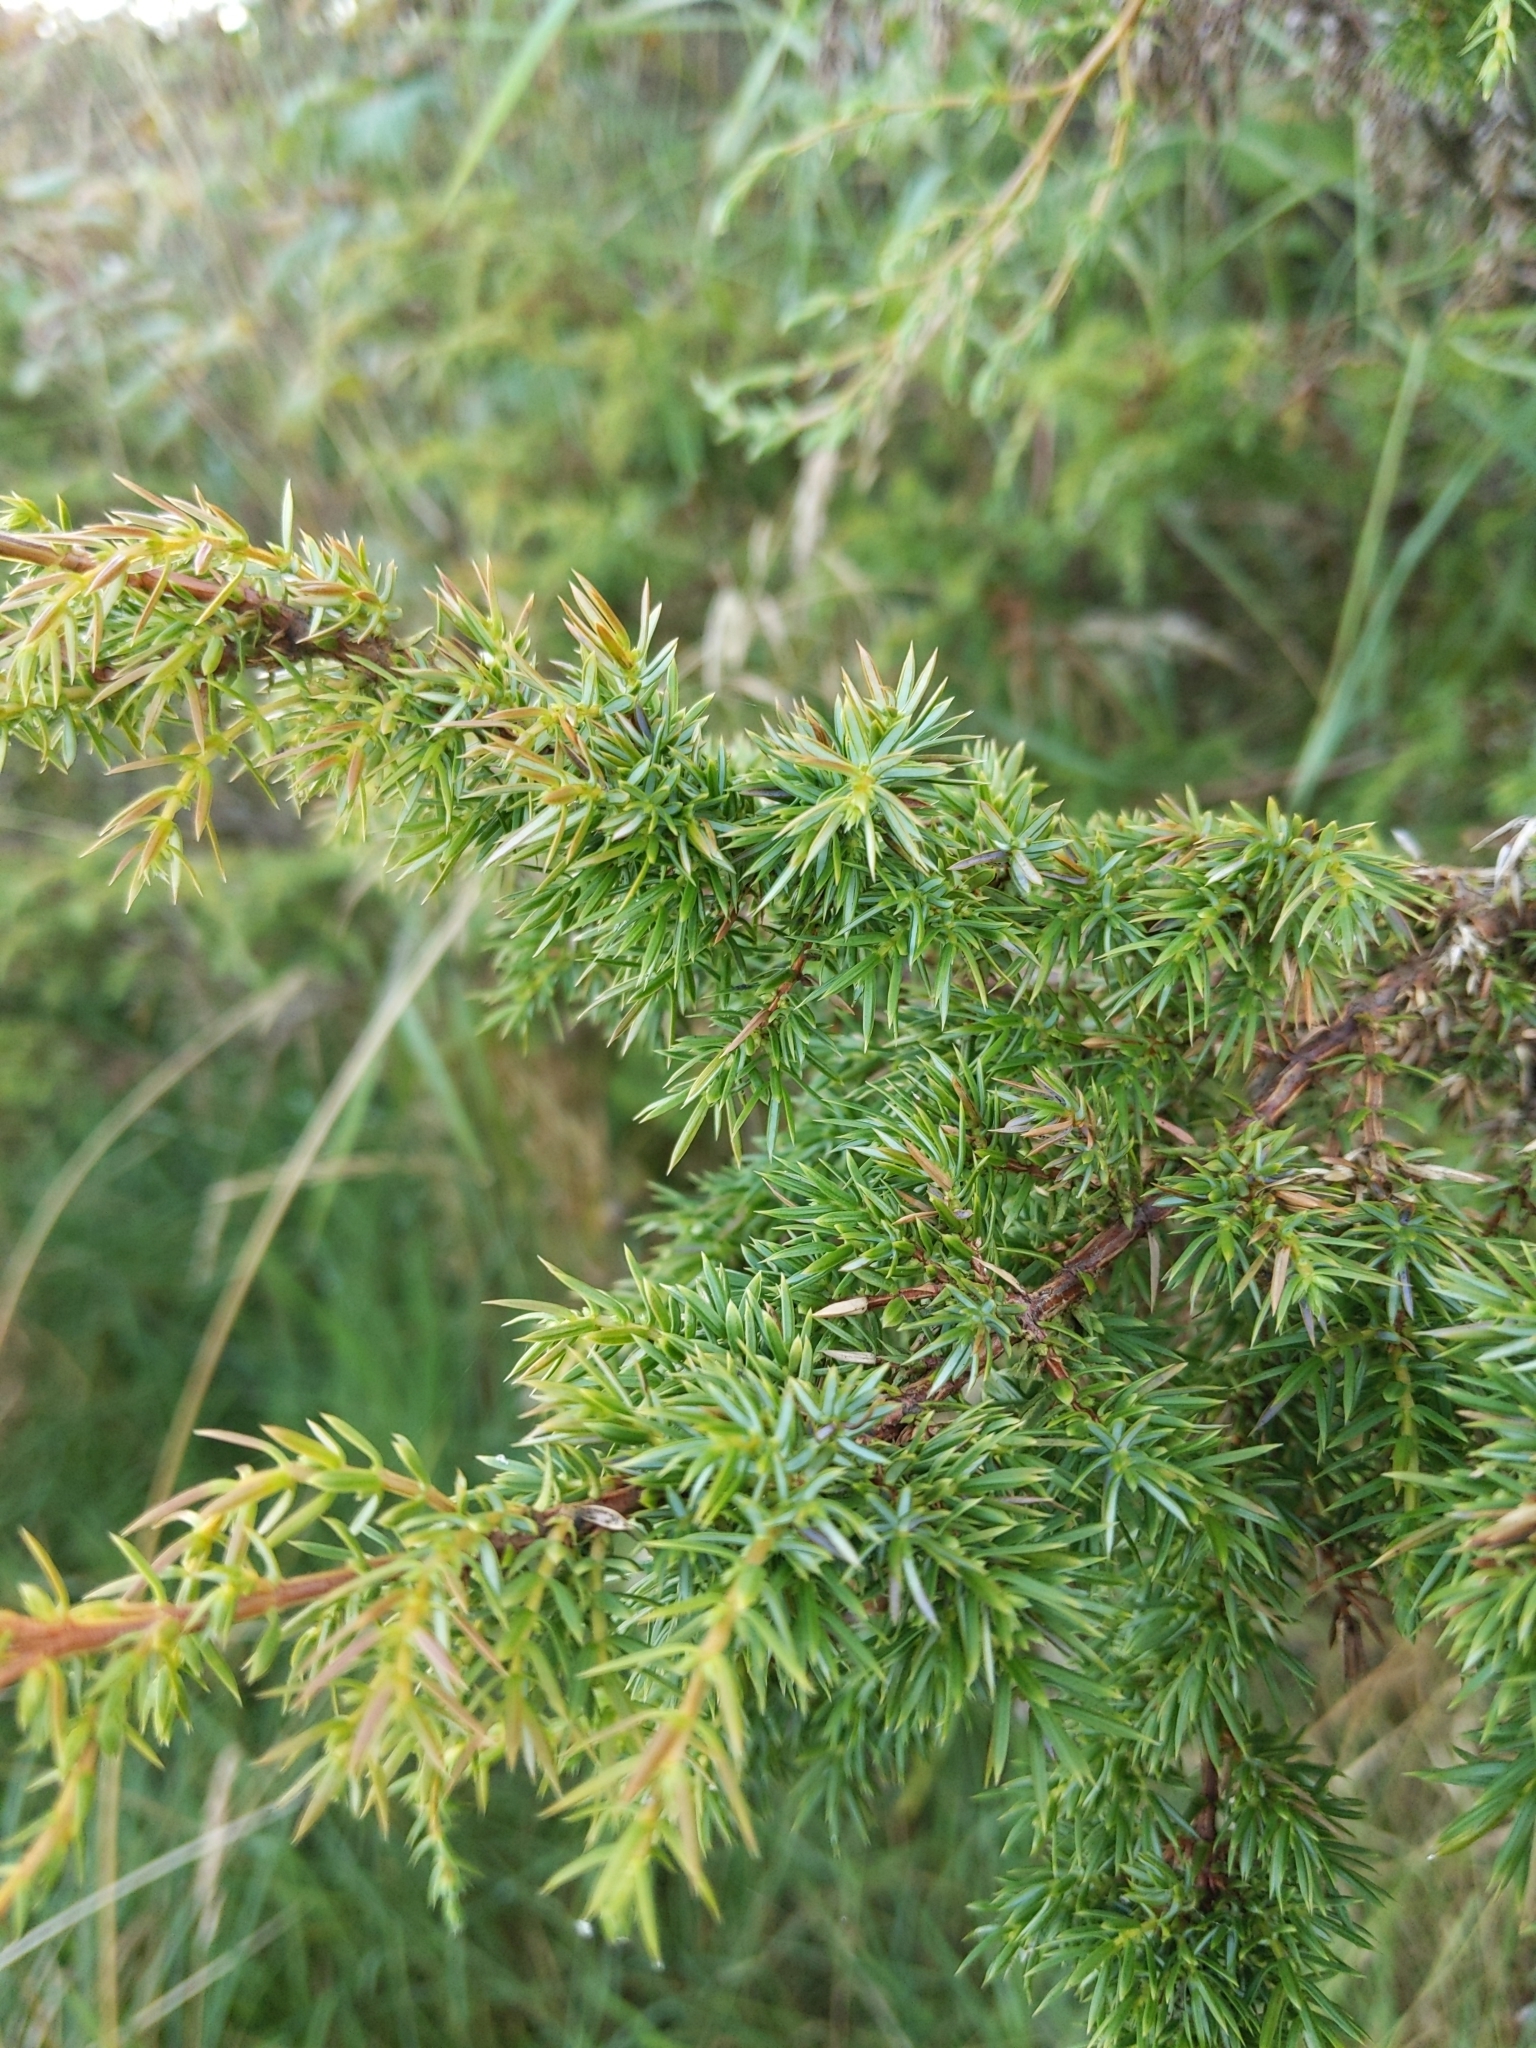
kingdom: Plantae
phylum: Tracheophyta
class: Pinopsida
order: Pinales
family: Cupressaceae
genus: Juniperus
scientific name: Juniperus communis
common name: Common juniper
